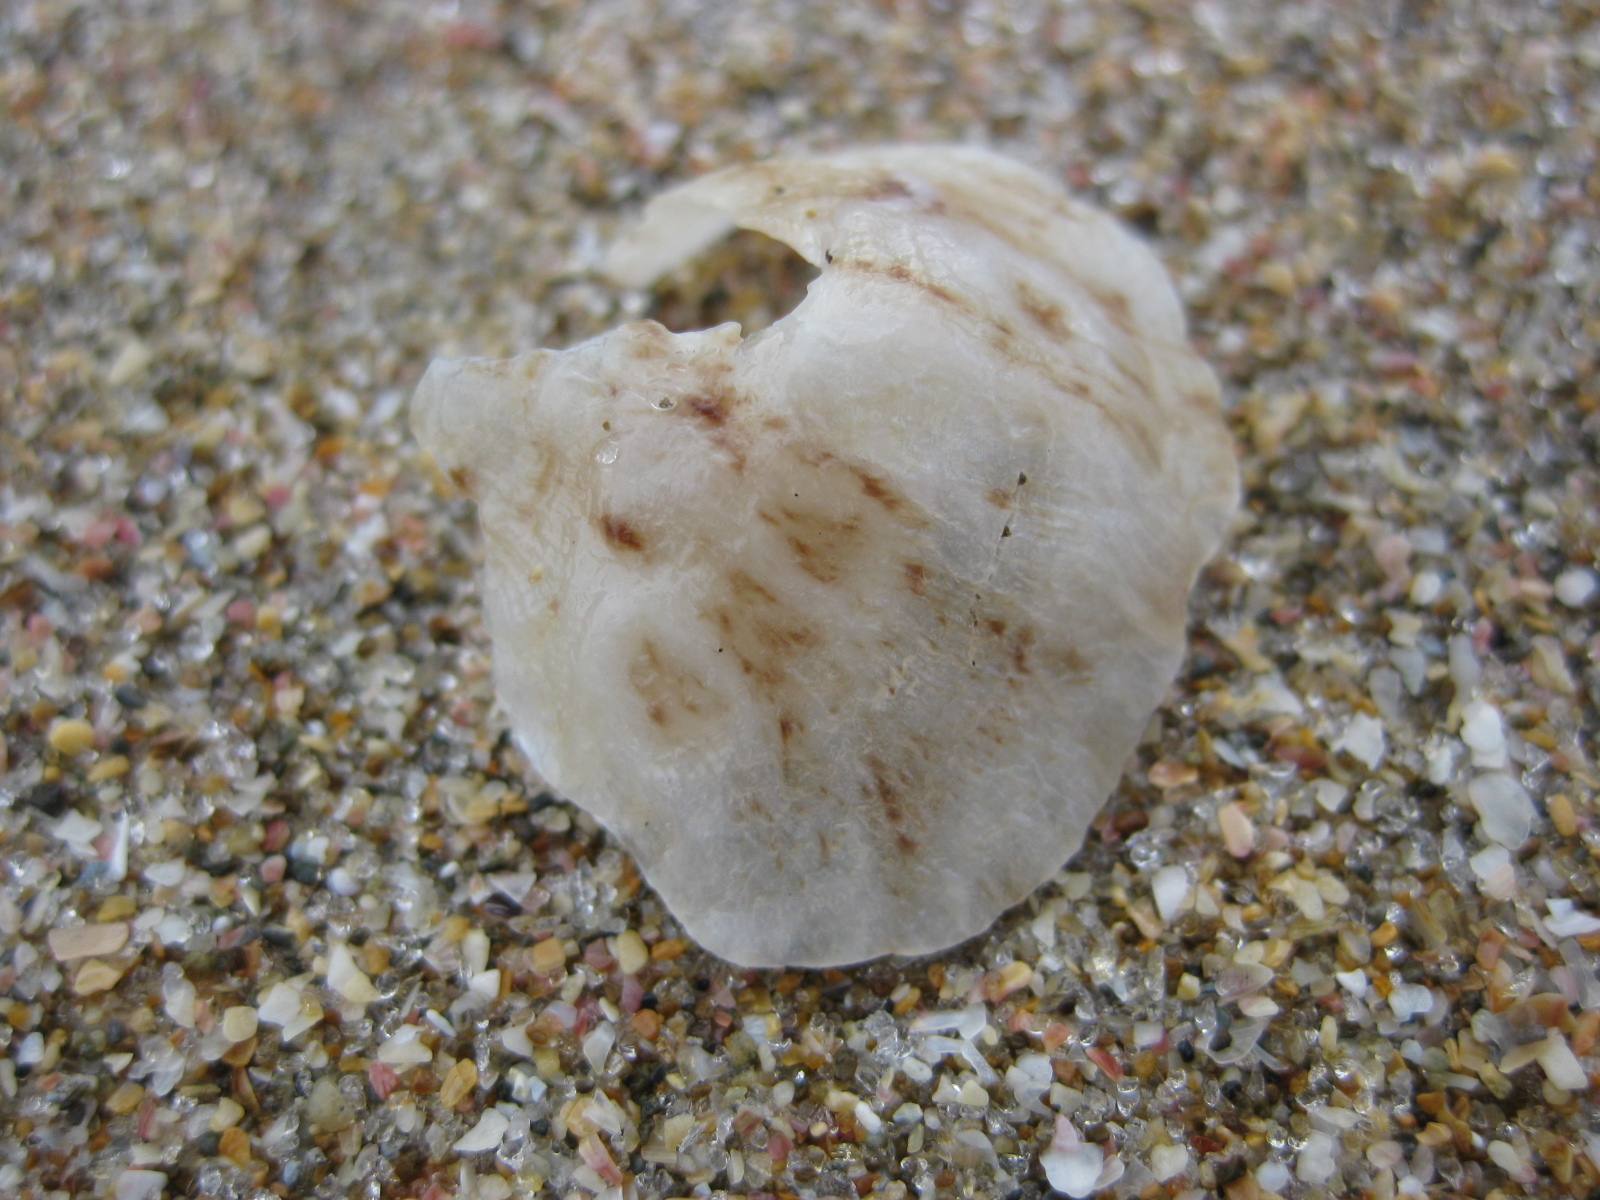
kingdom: Animalia
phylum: Mollusca
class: Bivalvia
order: Pectinida
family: Anomiidae
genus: Monia
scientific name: Monia zelandica
